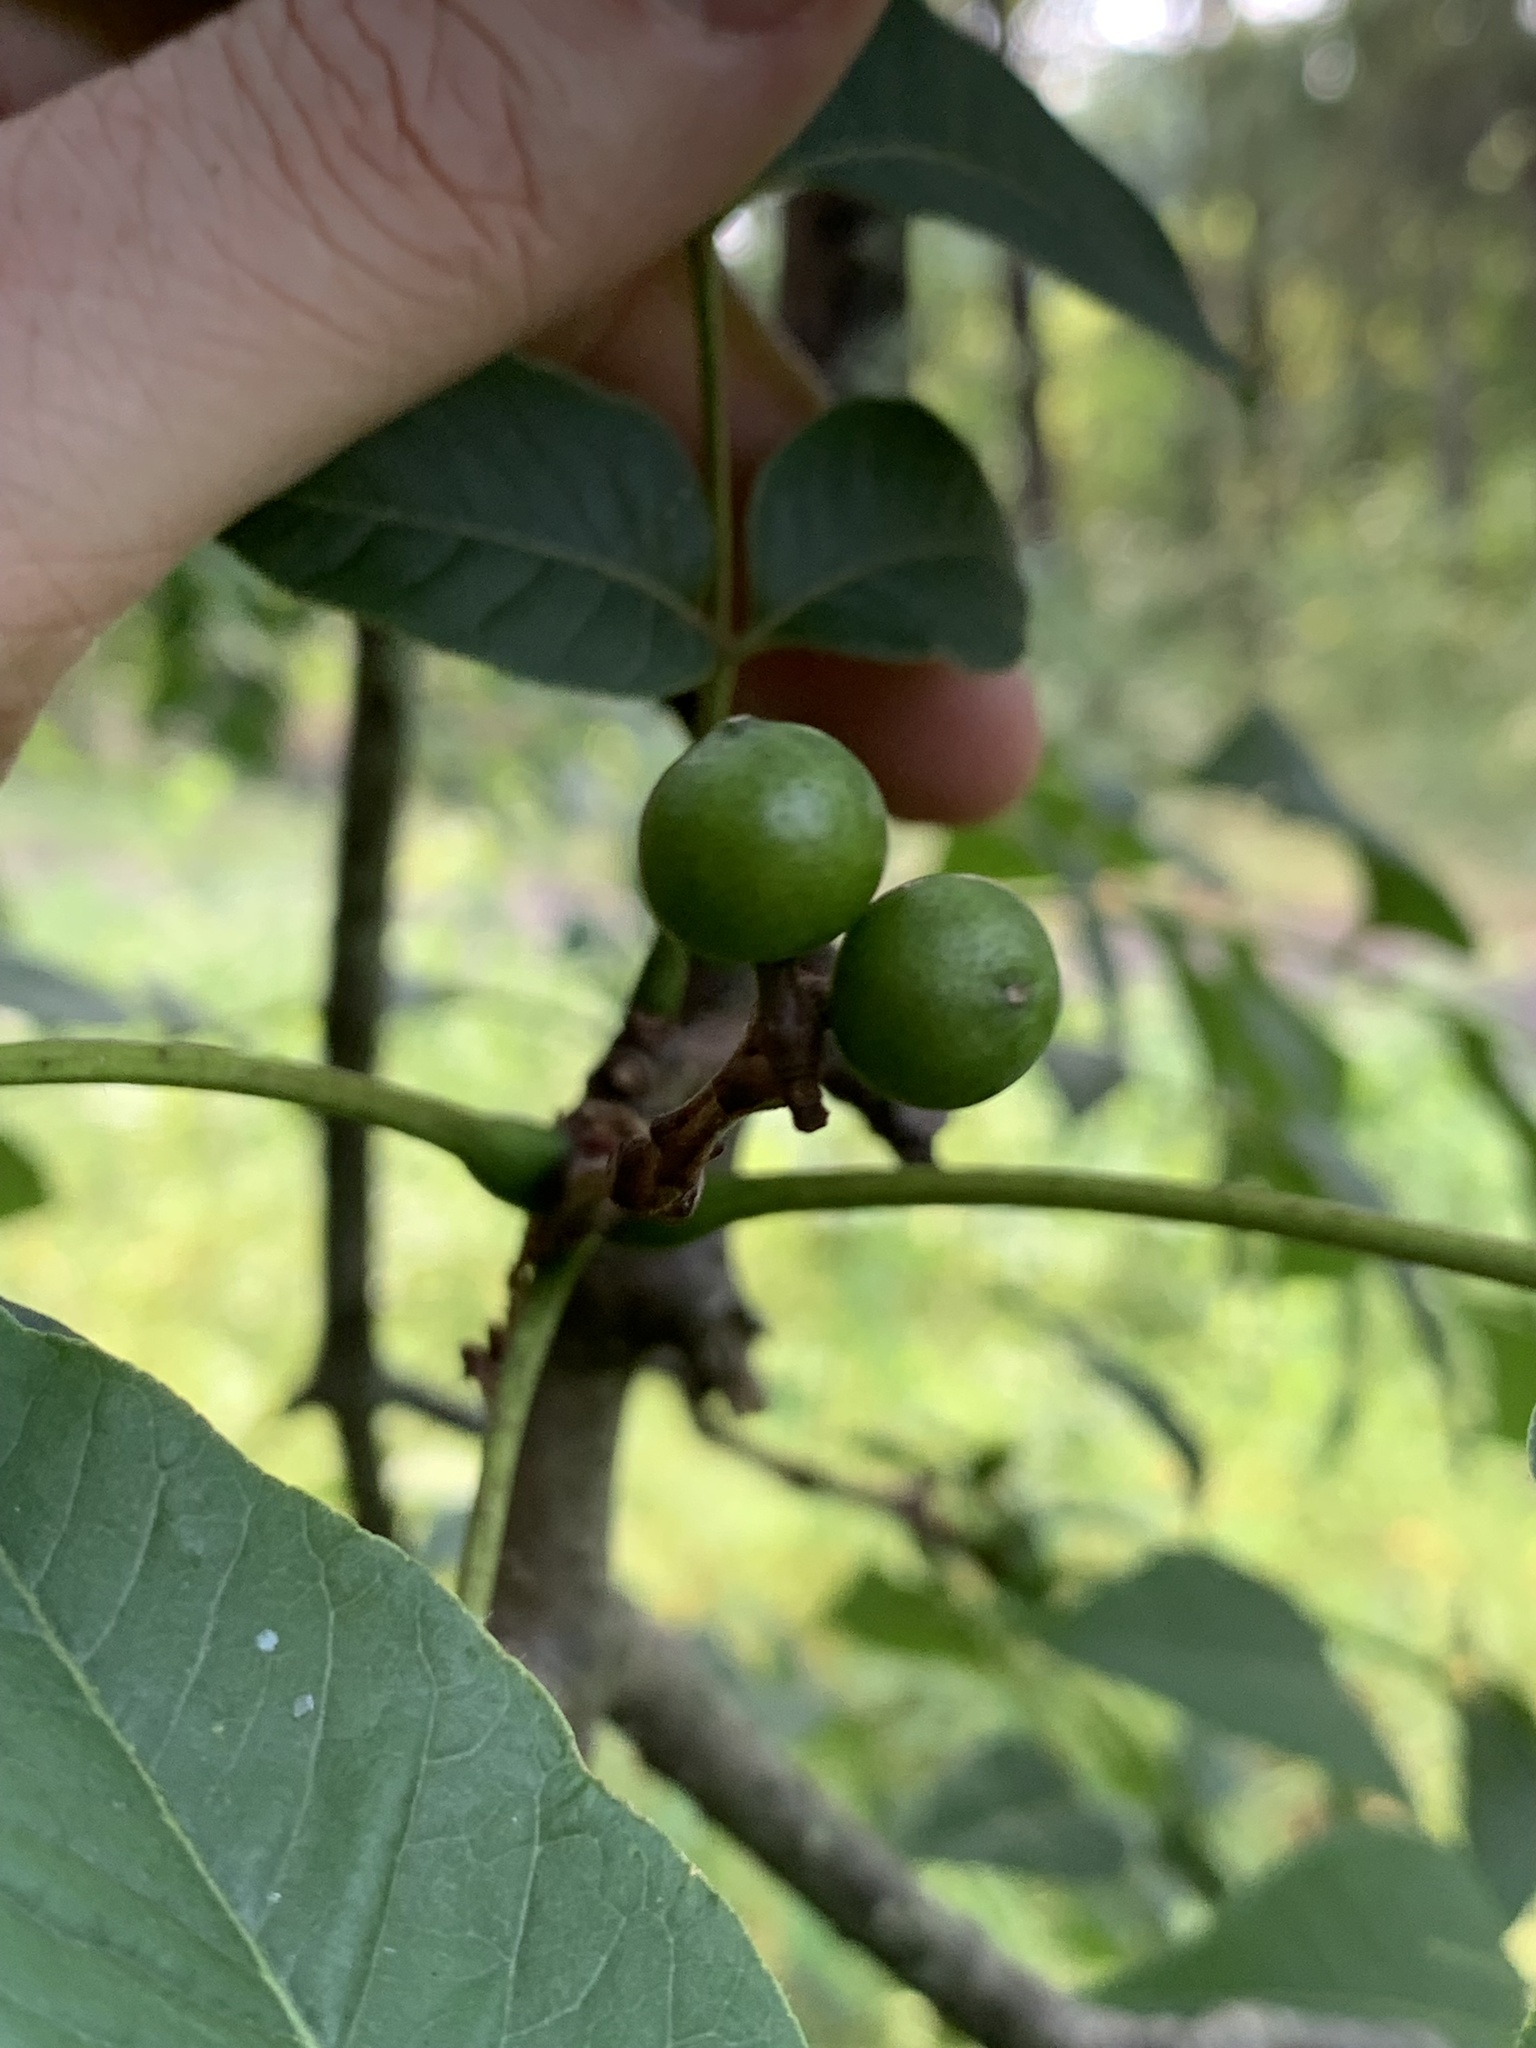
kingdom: Plantae
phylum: Tracheophyta
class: Magnoliopsida
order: Sapindales
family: Rutaceae
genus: Phellodendron
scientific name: Phellodendron amurense
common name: Amur corktree
